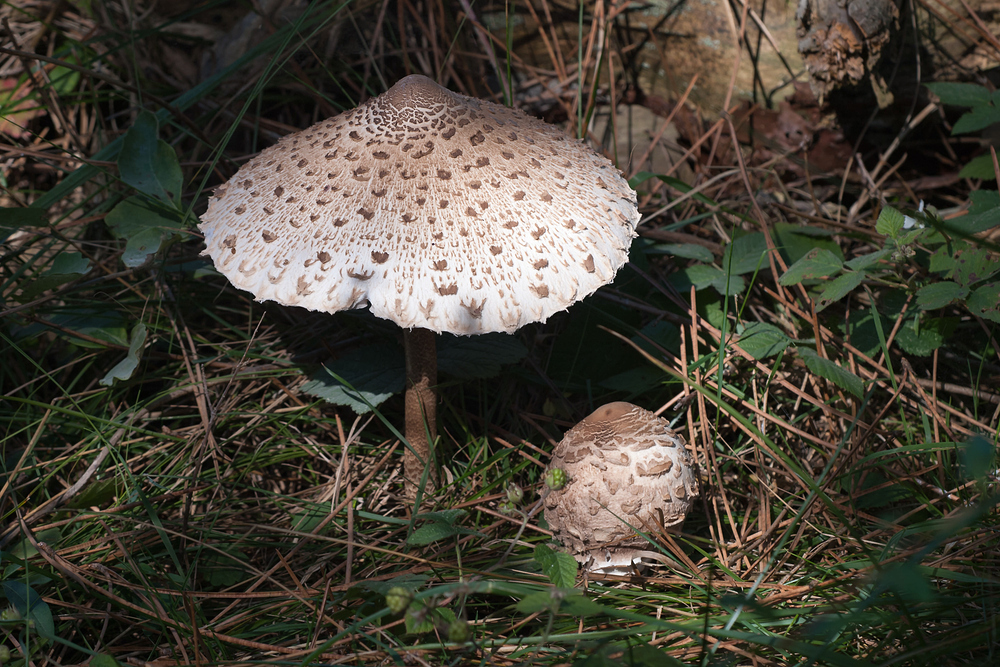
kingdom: Fungi
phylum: Basidiomycota
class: Agaricomycetes
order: Agaricales
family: Agaricaceae
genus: Macrolepiota
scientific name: Macrolepiota procera
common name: Parasol
